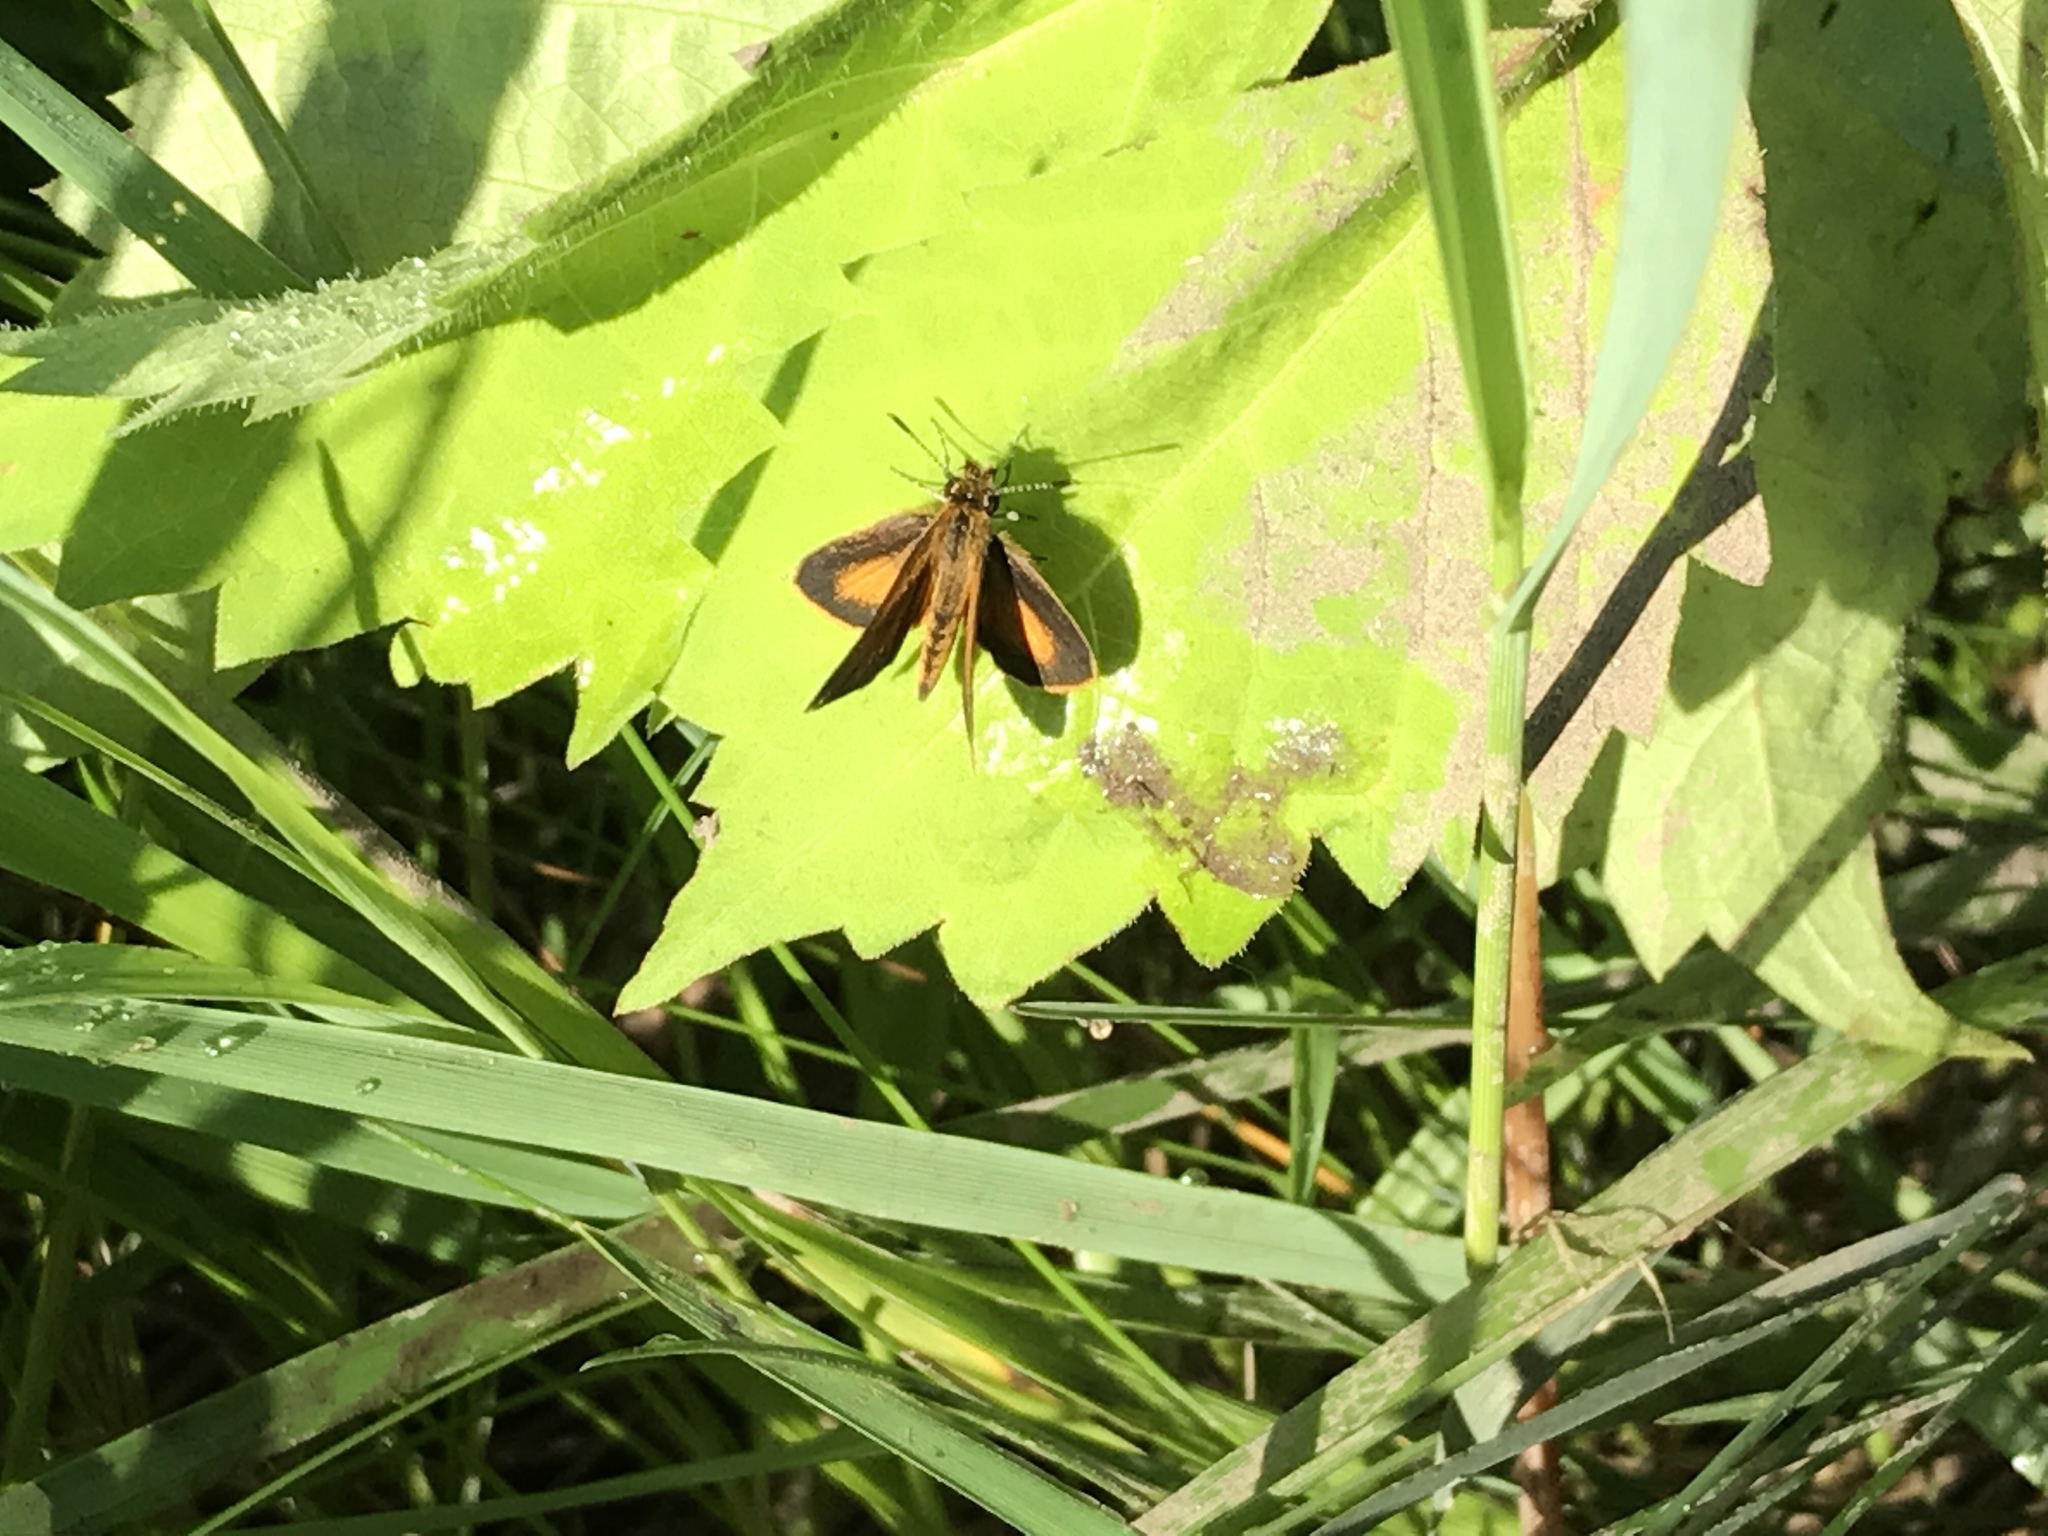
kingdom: Animalia
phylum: Arthropoda
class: Insecta
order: Lepidoptera
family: Hesperiidae
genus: Ancyloxypha
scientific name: Ancyloxypha numitor
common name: Least skipper
